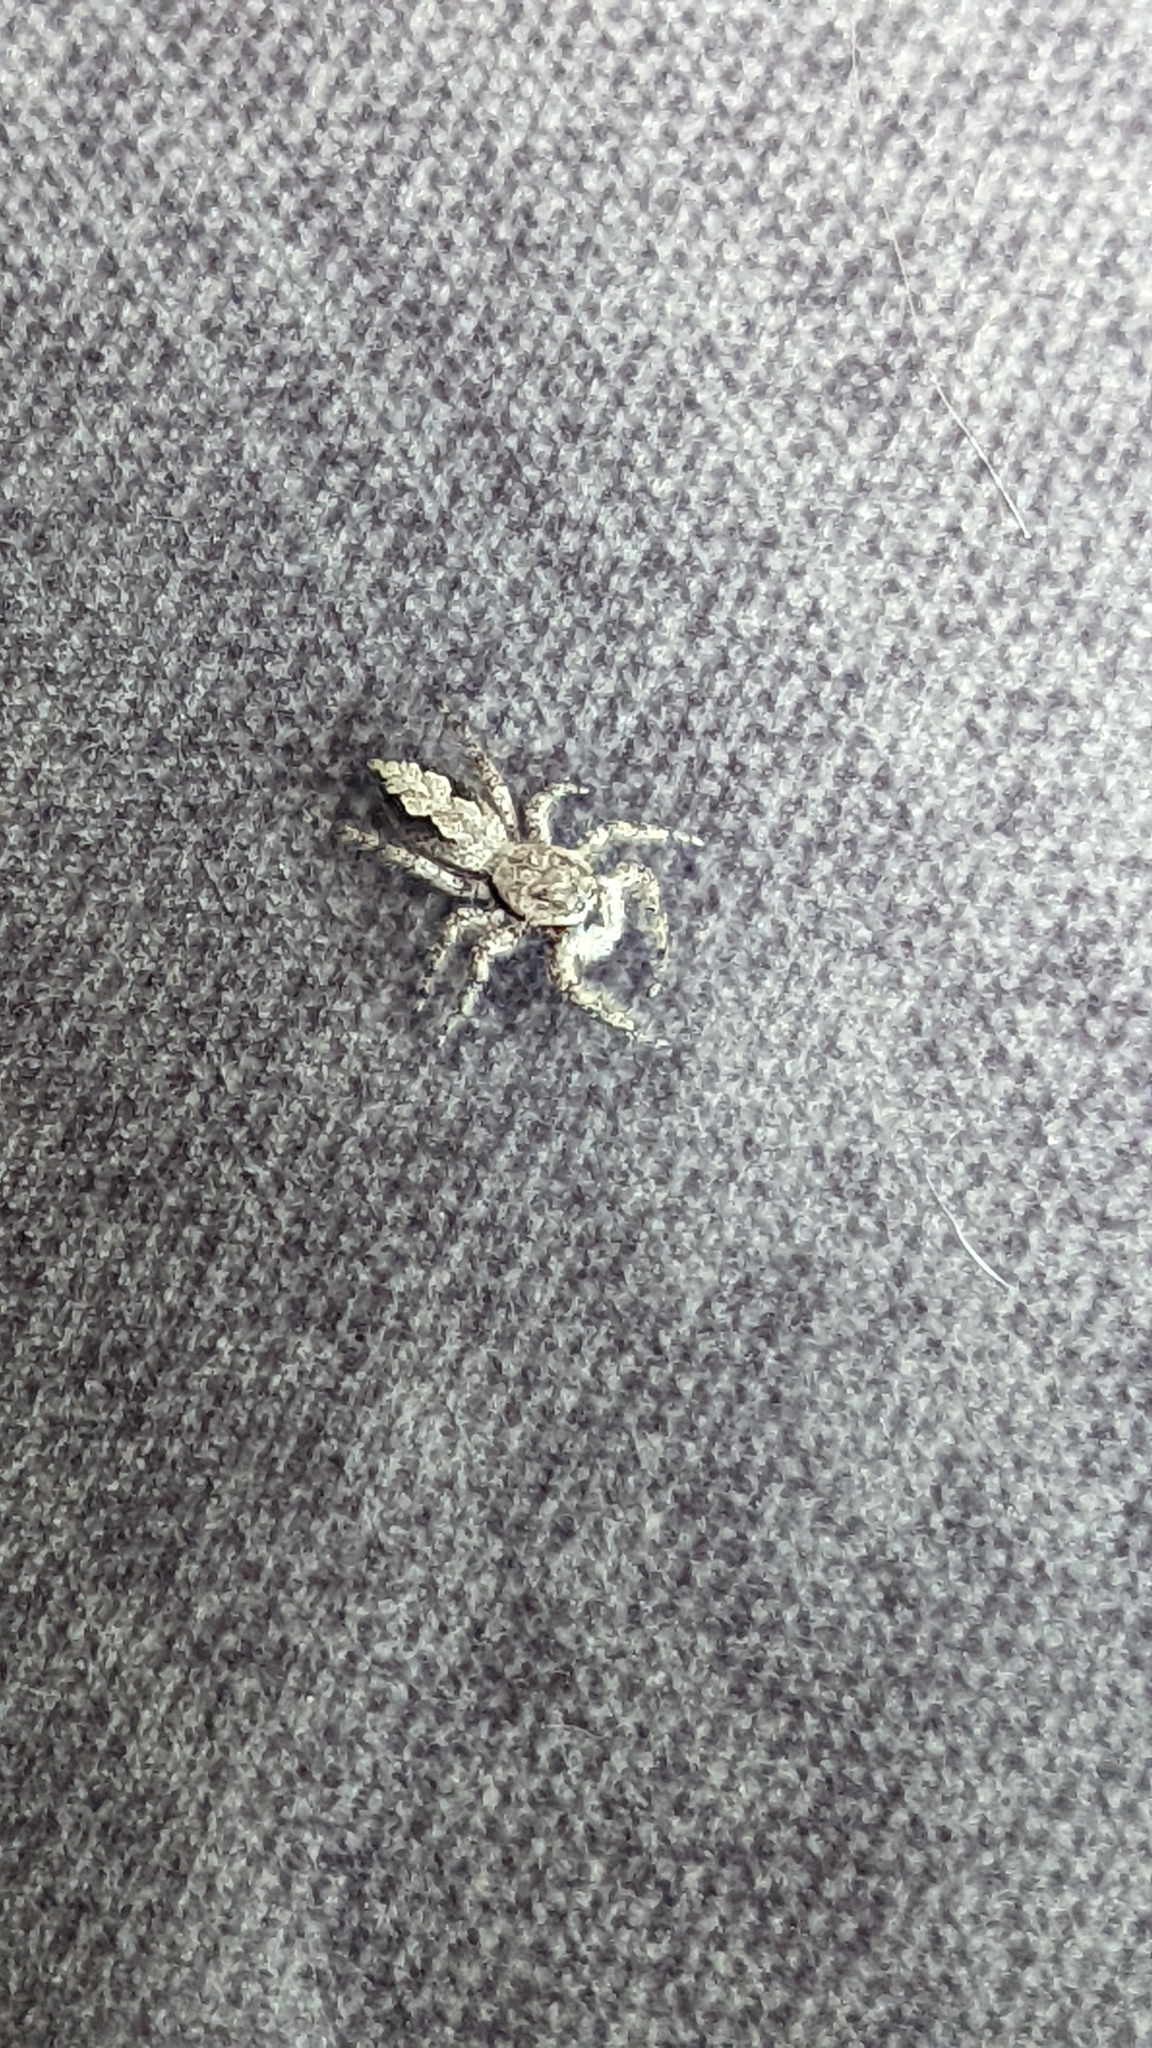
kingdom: Animalia
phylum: Arthropoda
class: Arachnida
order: Araneae
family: Salticidae
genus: Platycryptus
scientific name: Platycryptus undatus
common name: Tan jumping spider
